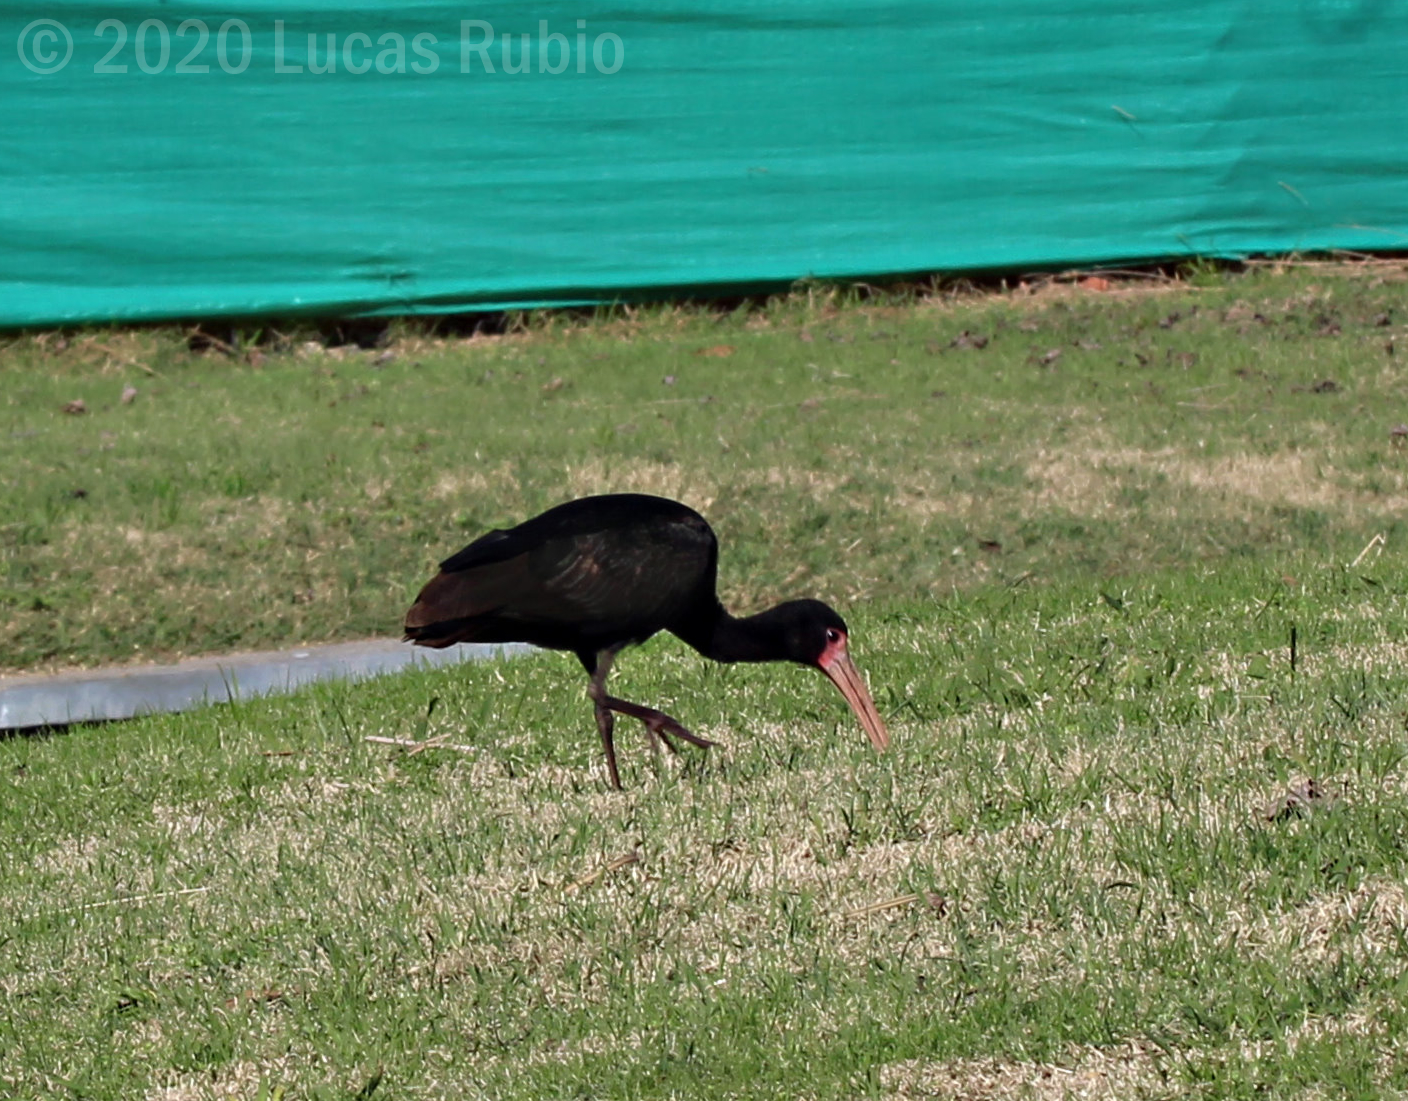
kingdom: Animalia
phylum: Chordata
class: Aves
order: Pelecaniformes
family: Threskiornithidae
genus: Phimosus
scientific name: Phimosus infuscatus
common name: Bare-faced ibis
